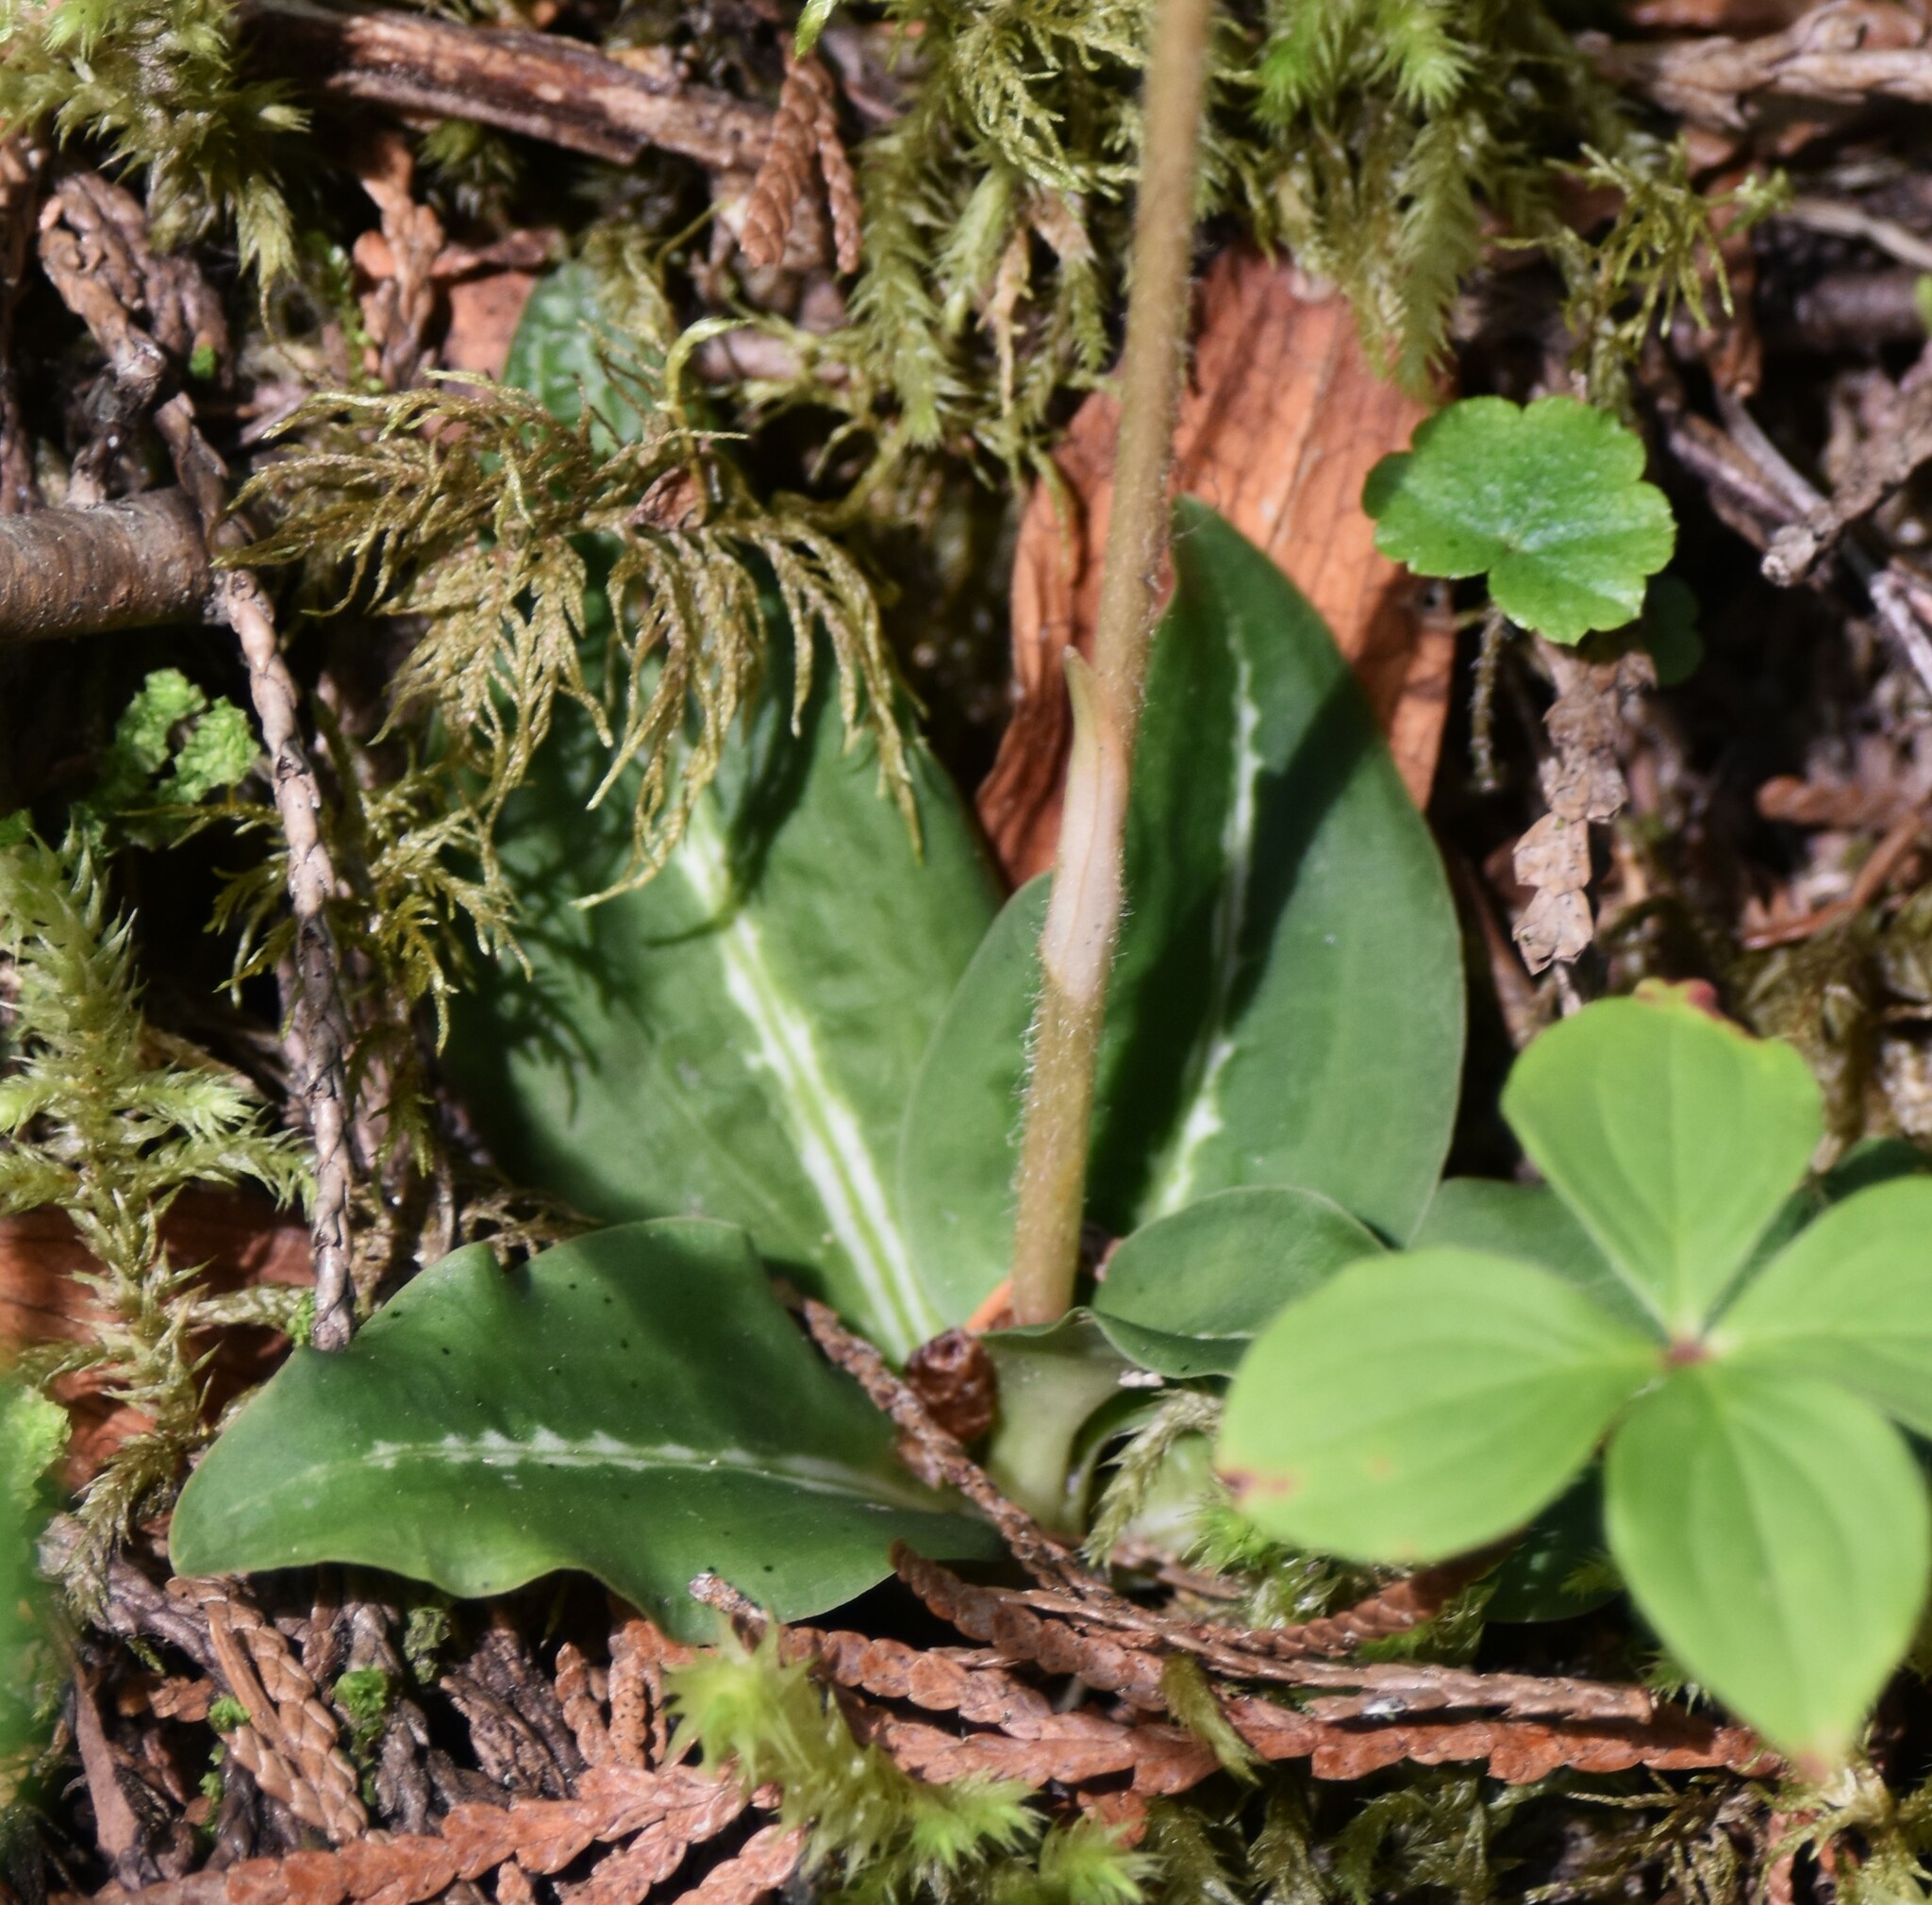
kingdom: Plantae
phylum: Tracheophyta
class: Liliopsida
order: Asparagales
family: Orchidaceae
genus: Goodyera
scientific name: Goodyera oblongifolia
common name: Giant rattlesnake-plantain
